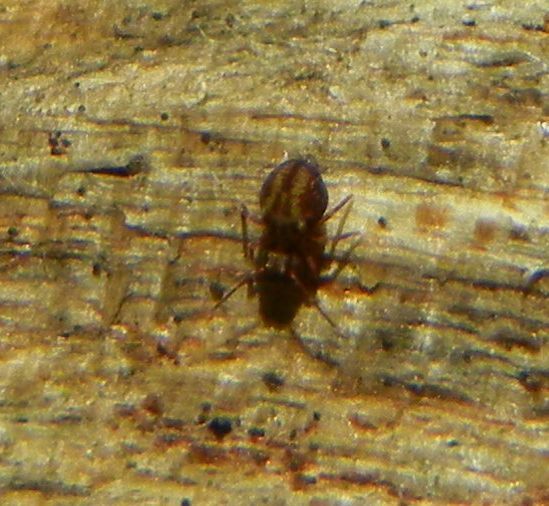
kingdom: Animalia
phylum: Arthropoda
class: Collembola
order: Symphypleona
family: Dicyrtomidae
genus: Dicyrtomina
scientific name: Dicyrtomina saundersi
